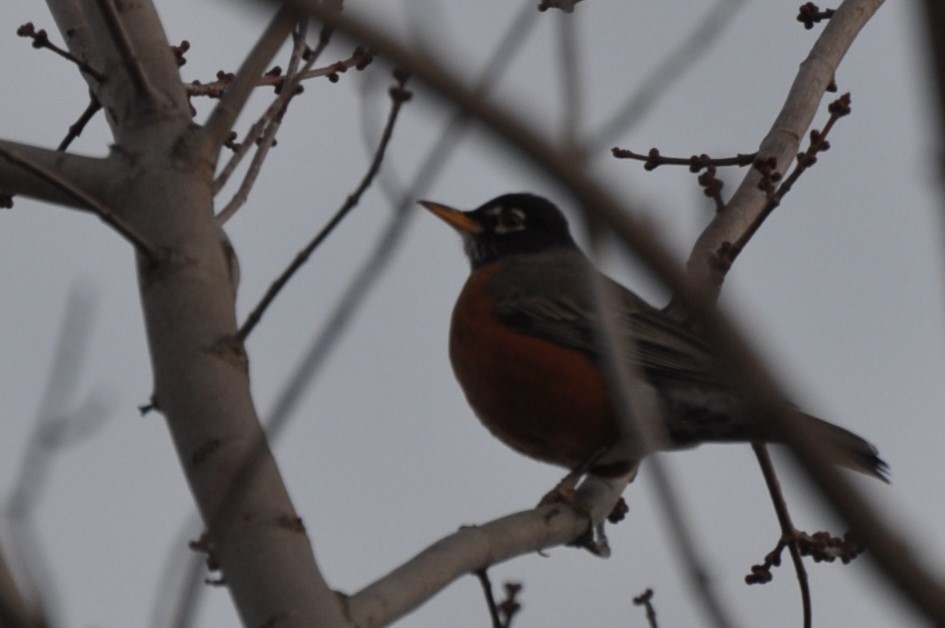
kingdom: Animalia
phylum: Chordata
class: Aves
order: Passeriformes
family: Turdidae
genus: Turdus
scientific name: Turdus migratorius
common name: American robin
